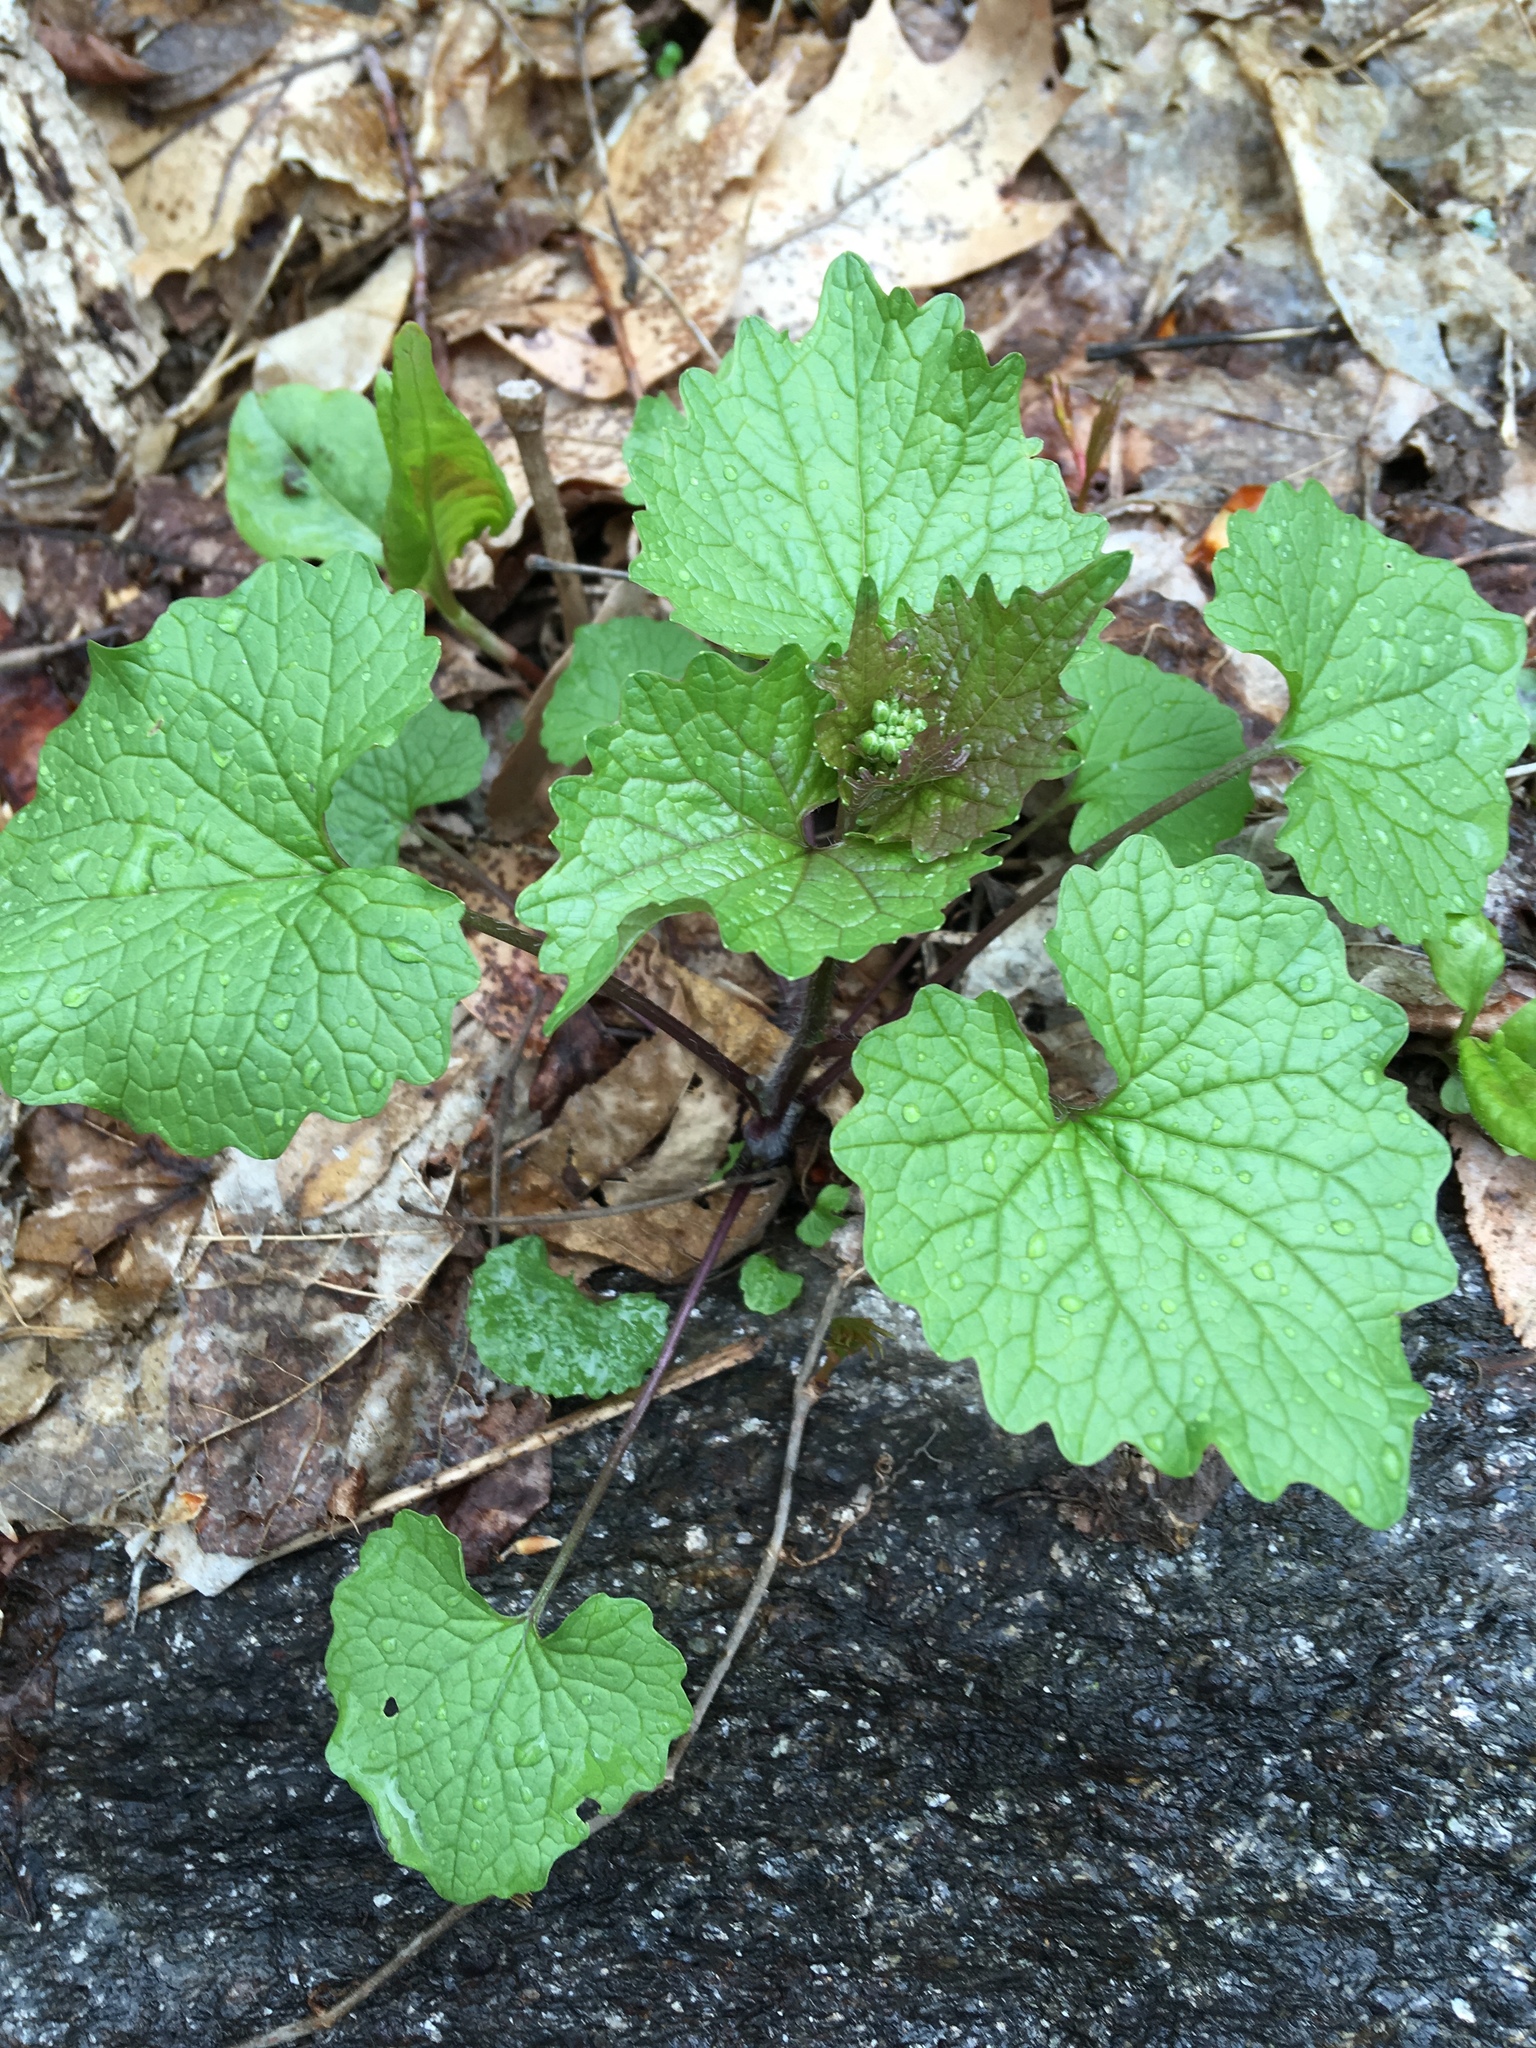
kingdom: Plantae
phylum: Tracheophyta
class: Magnoliopsida
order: Brassicales
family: Brassicaceae
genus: Alliaria
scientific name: Alliaria petiolata
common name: Garlic mustard
